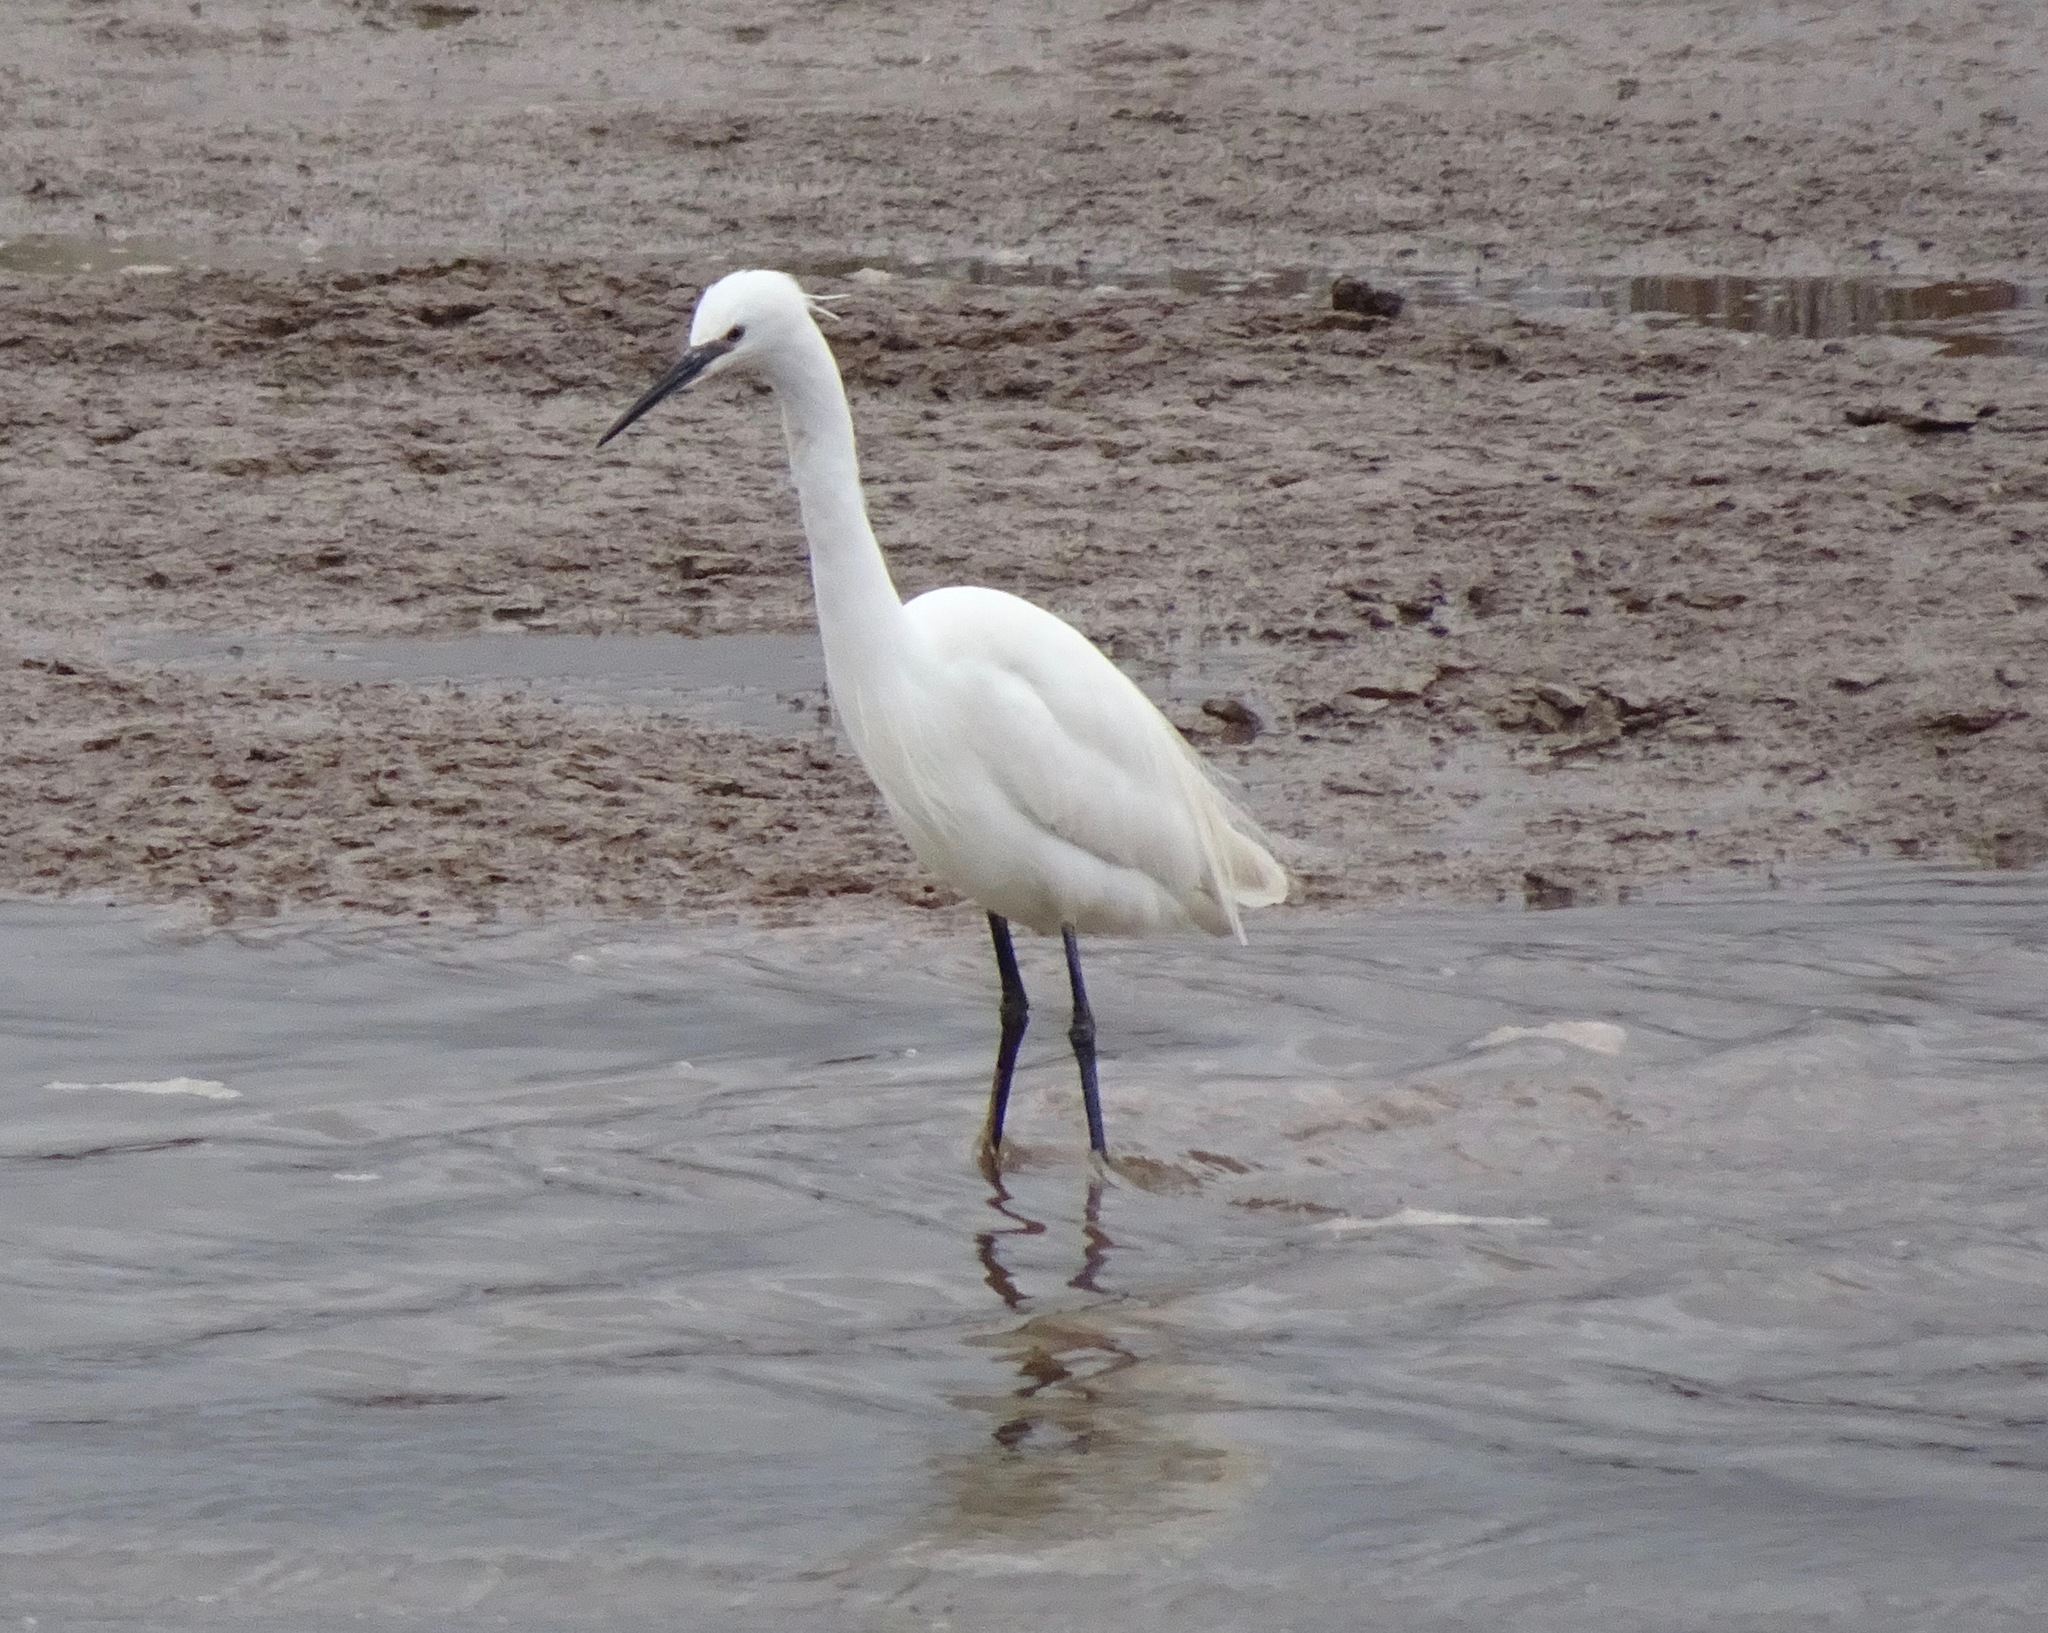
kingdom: Animalia
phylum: Chordata
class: Aves
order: Pelecaniformes
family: Ardeidae
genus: Egretta
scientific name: Egretta garzetta
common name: Little egret
